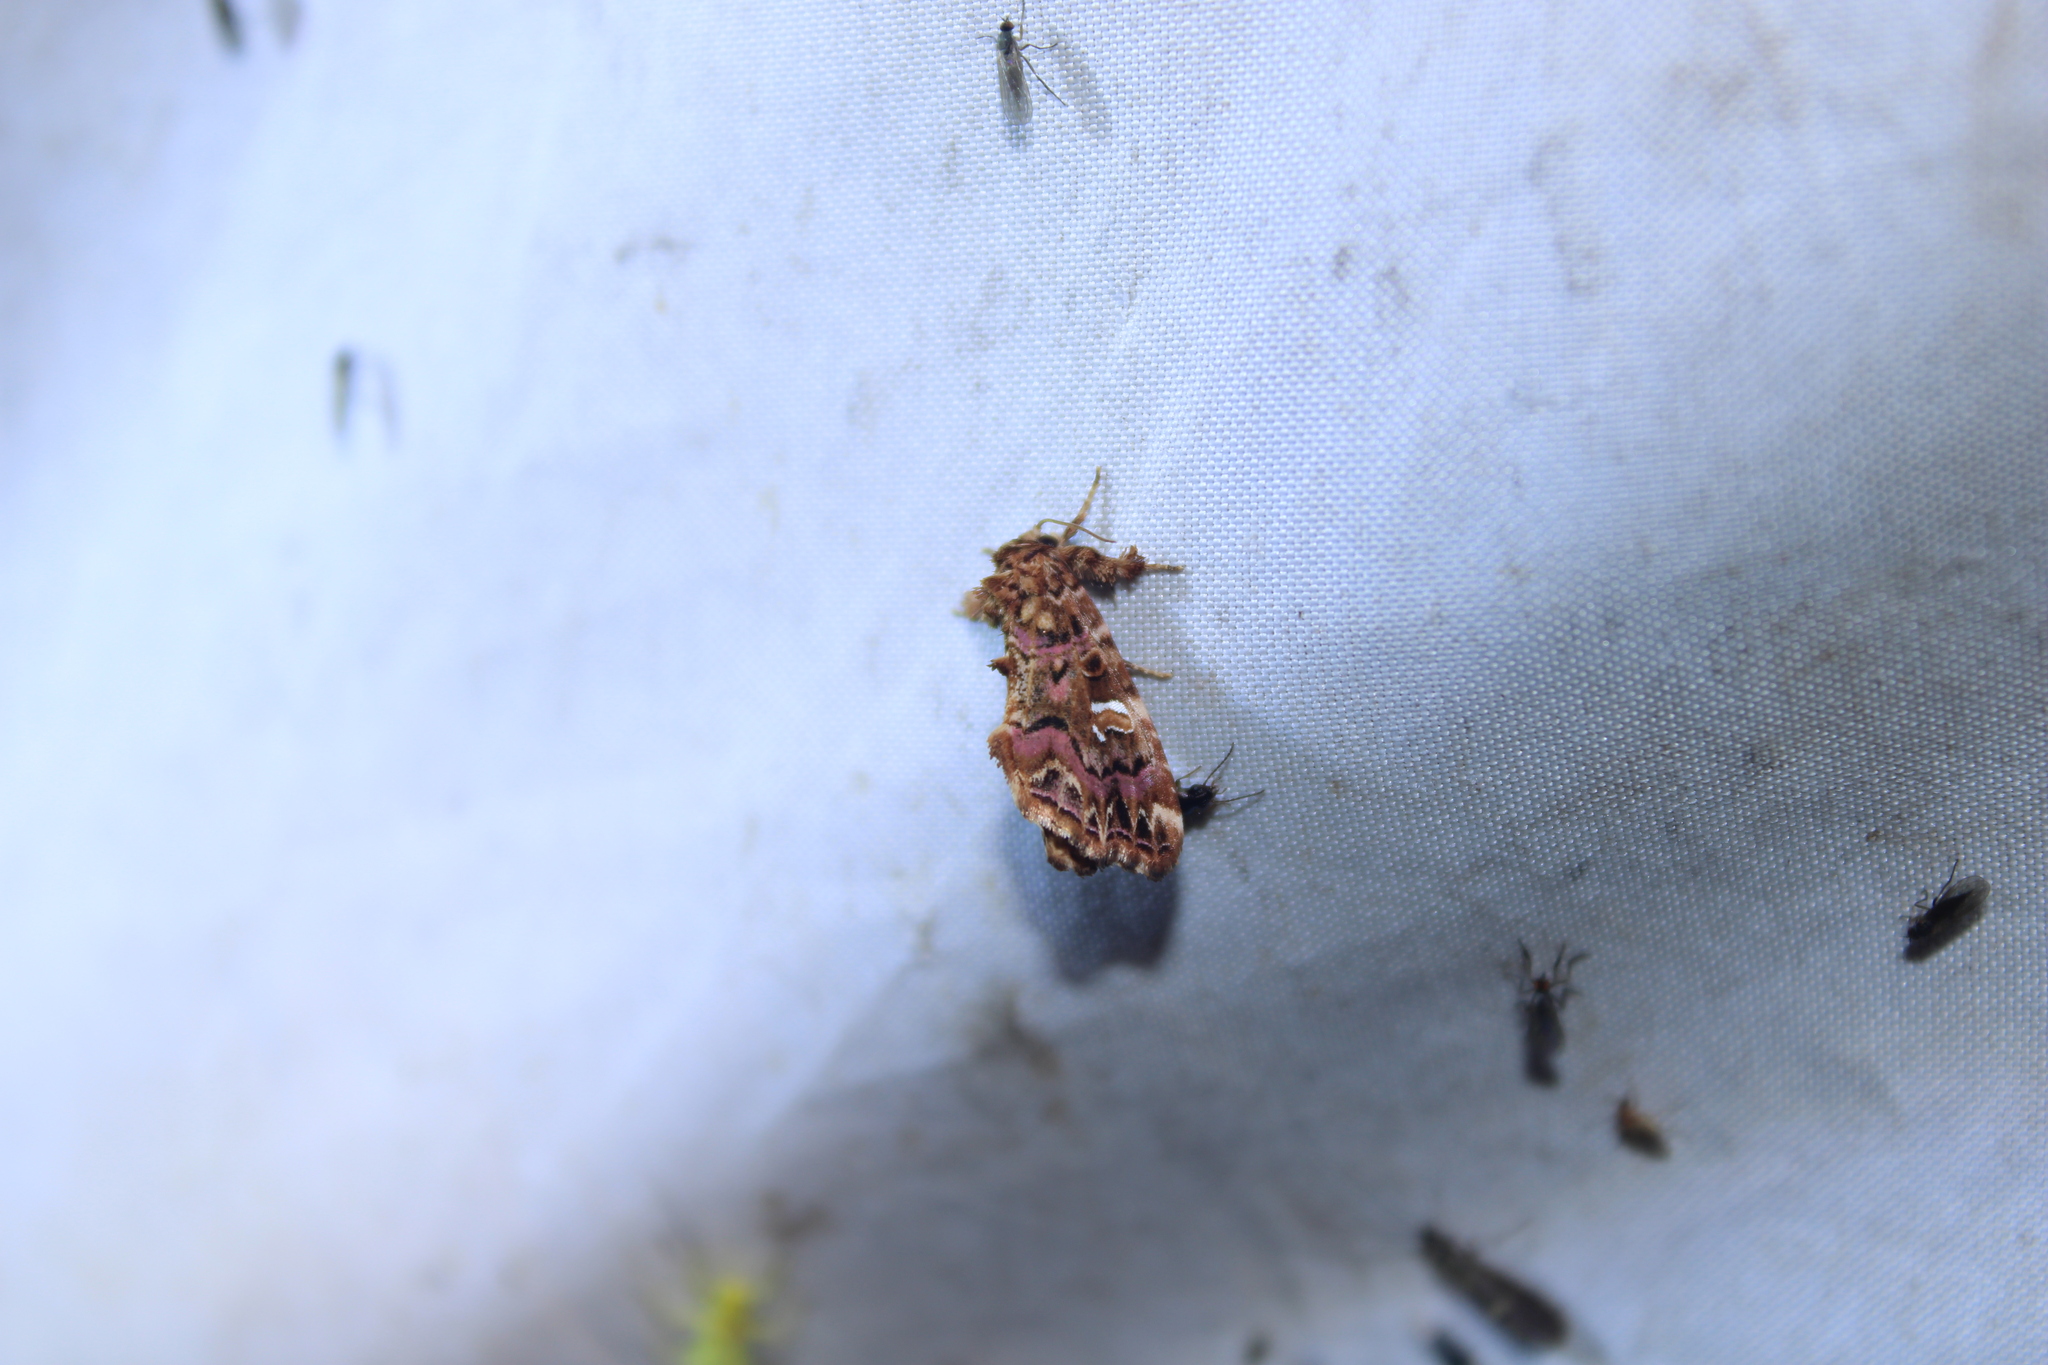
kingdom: Animalia
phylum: Arthropoda
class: Insecta
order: Lepidoptera
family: Noctuidae
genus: Callopistria
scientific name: Callopistria mollissima
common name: Pink-shaded fern moth
